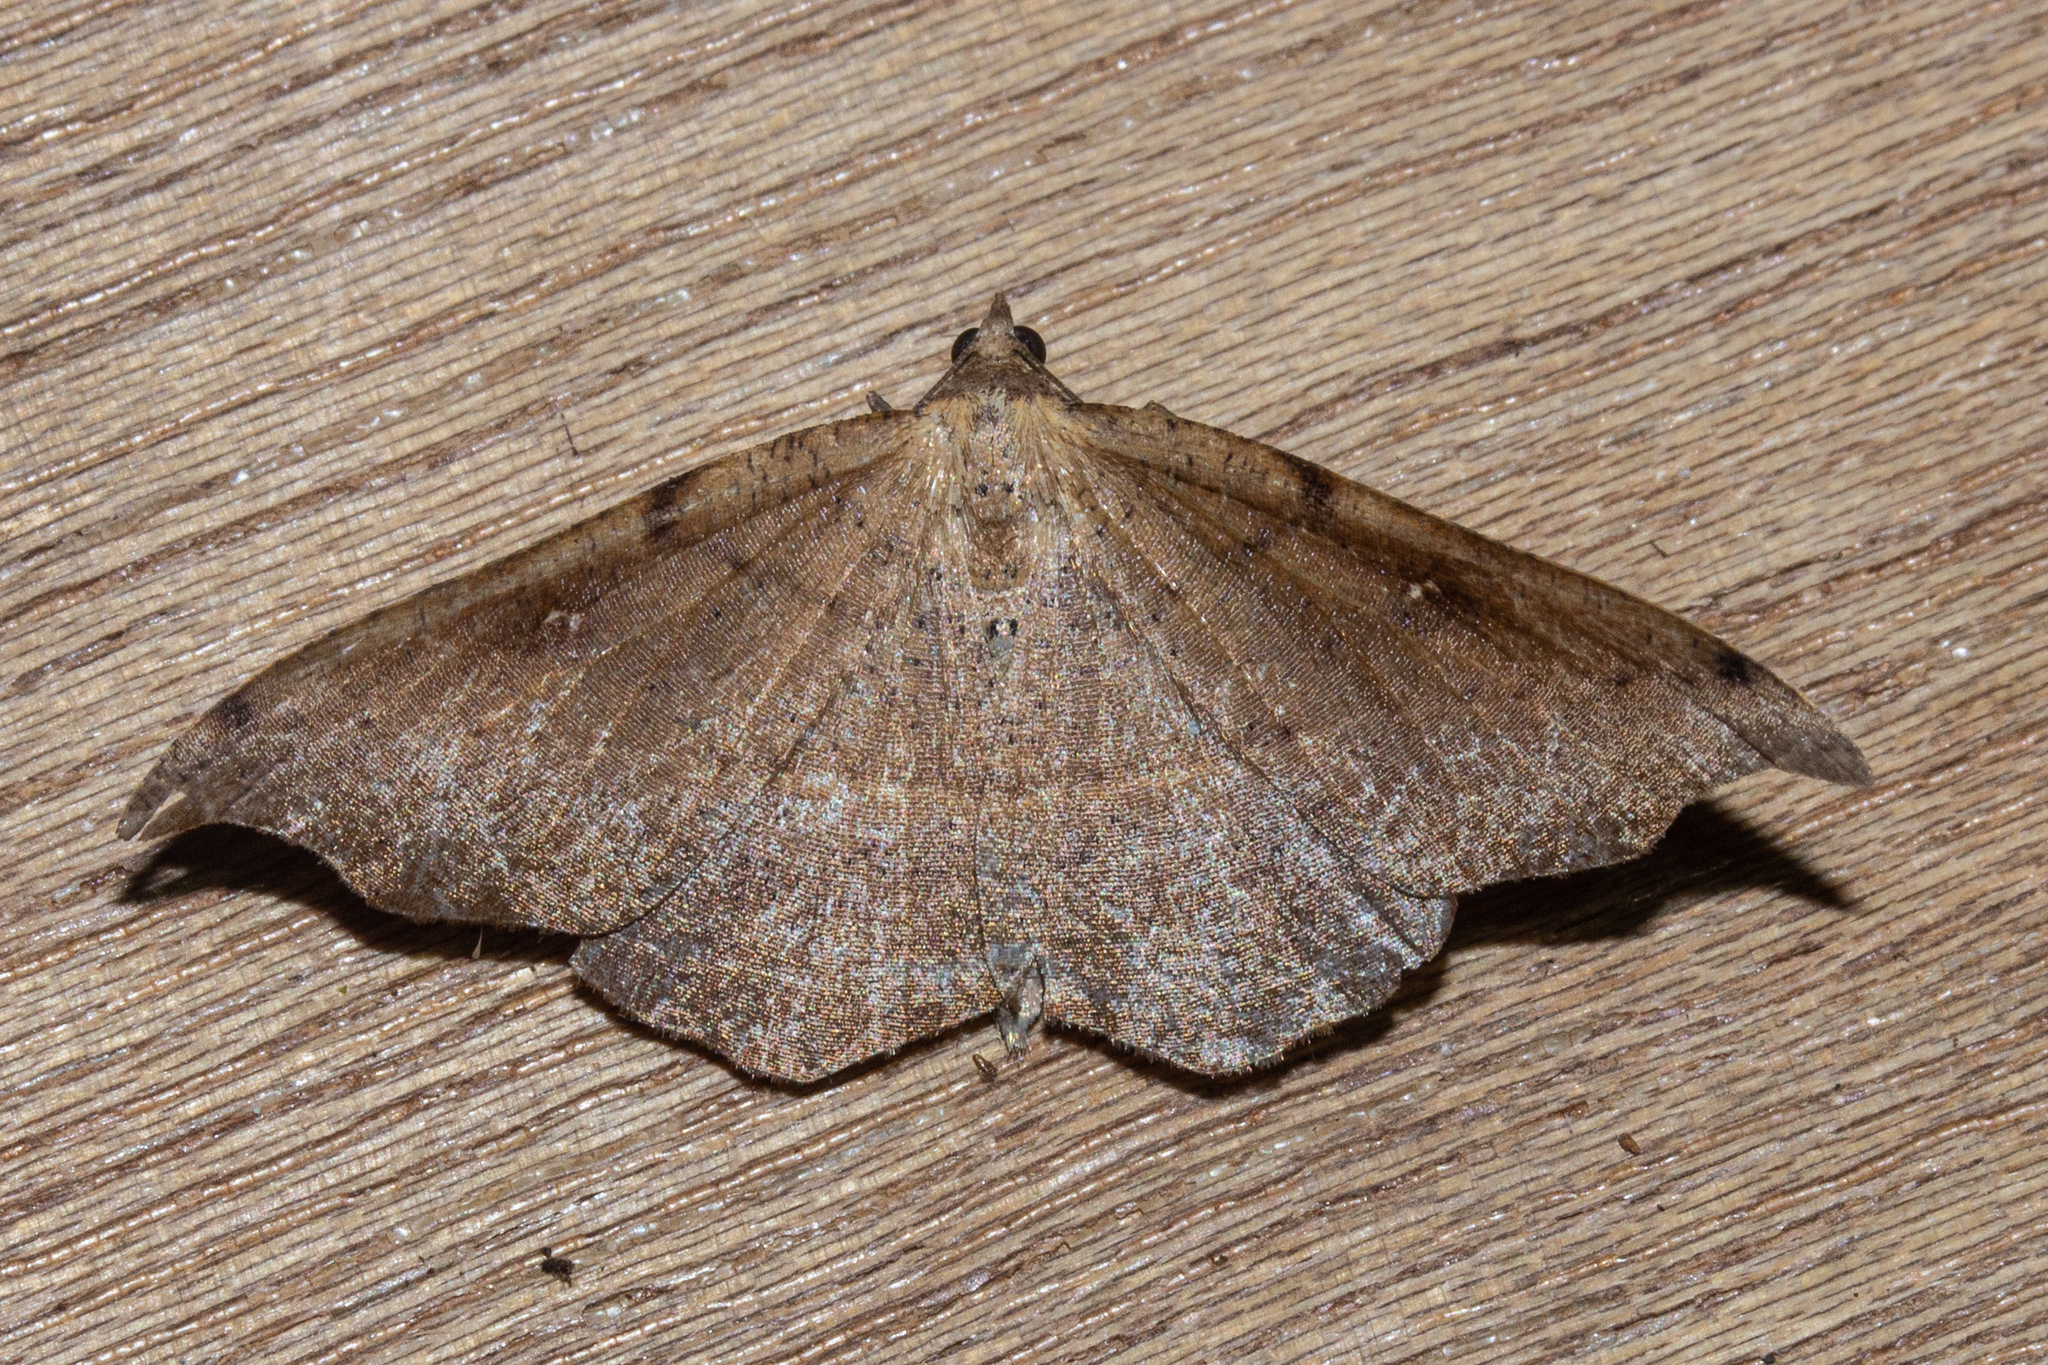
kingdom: Animalia
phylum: Arthropoda
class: Insecta
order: Lepidoptera
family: Geometridae
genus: Sarisa
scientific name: Sarisa muriferata
